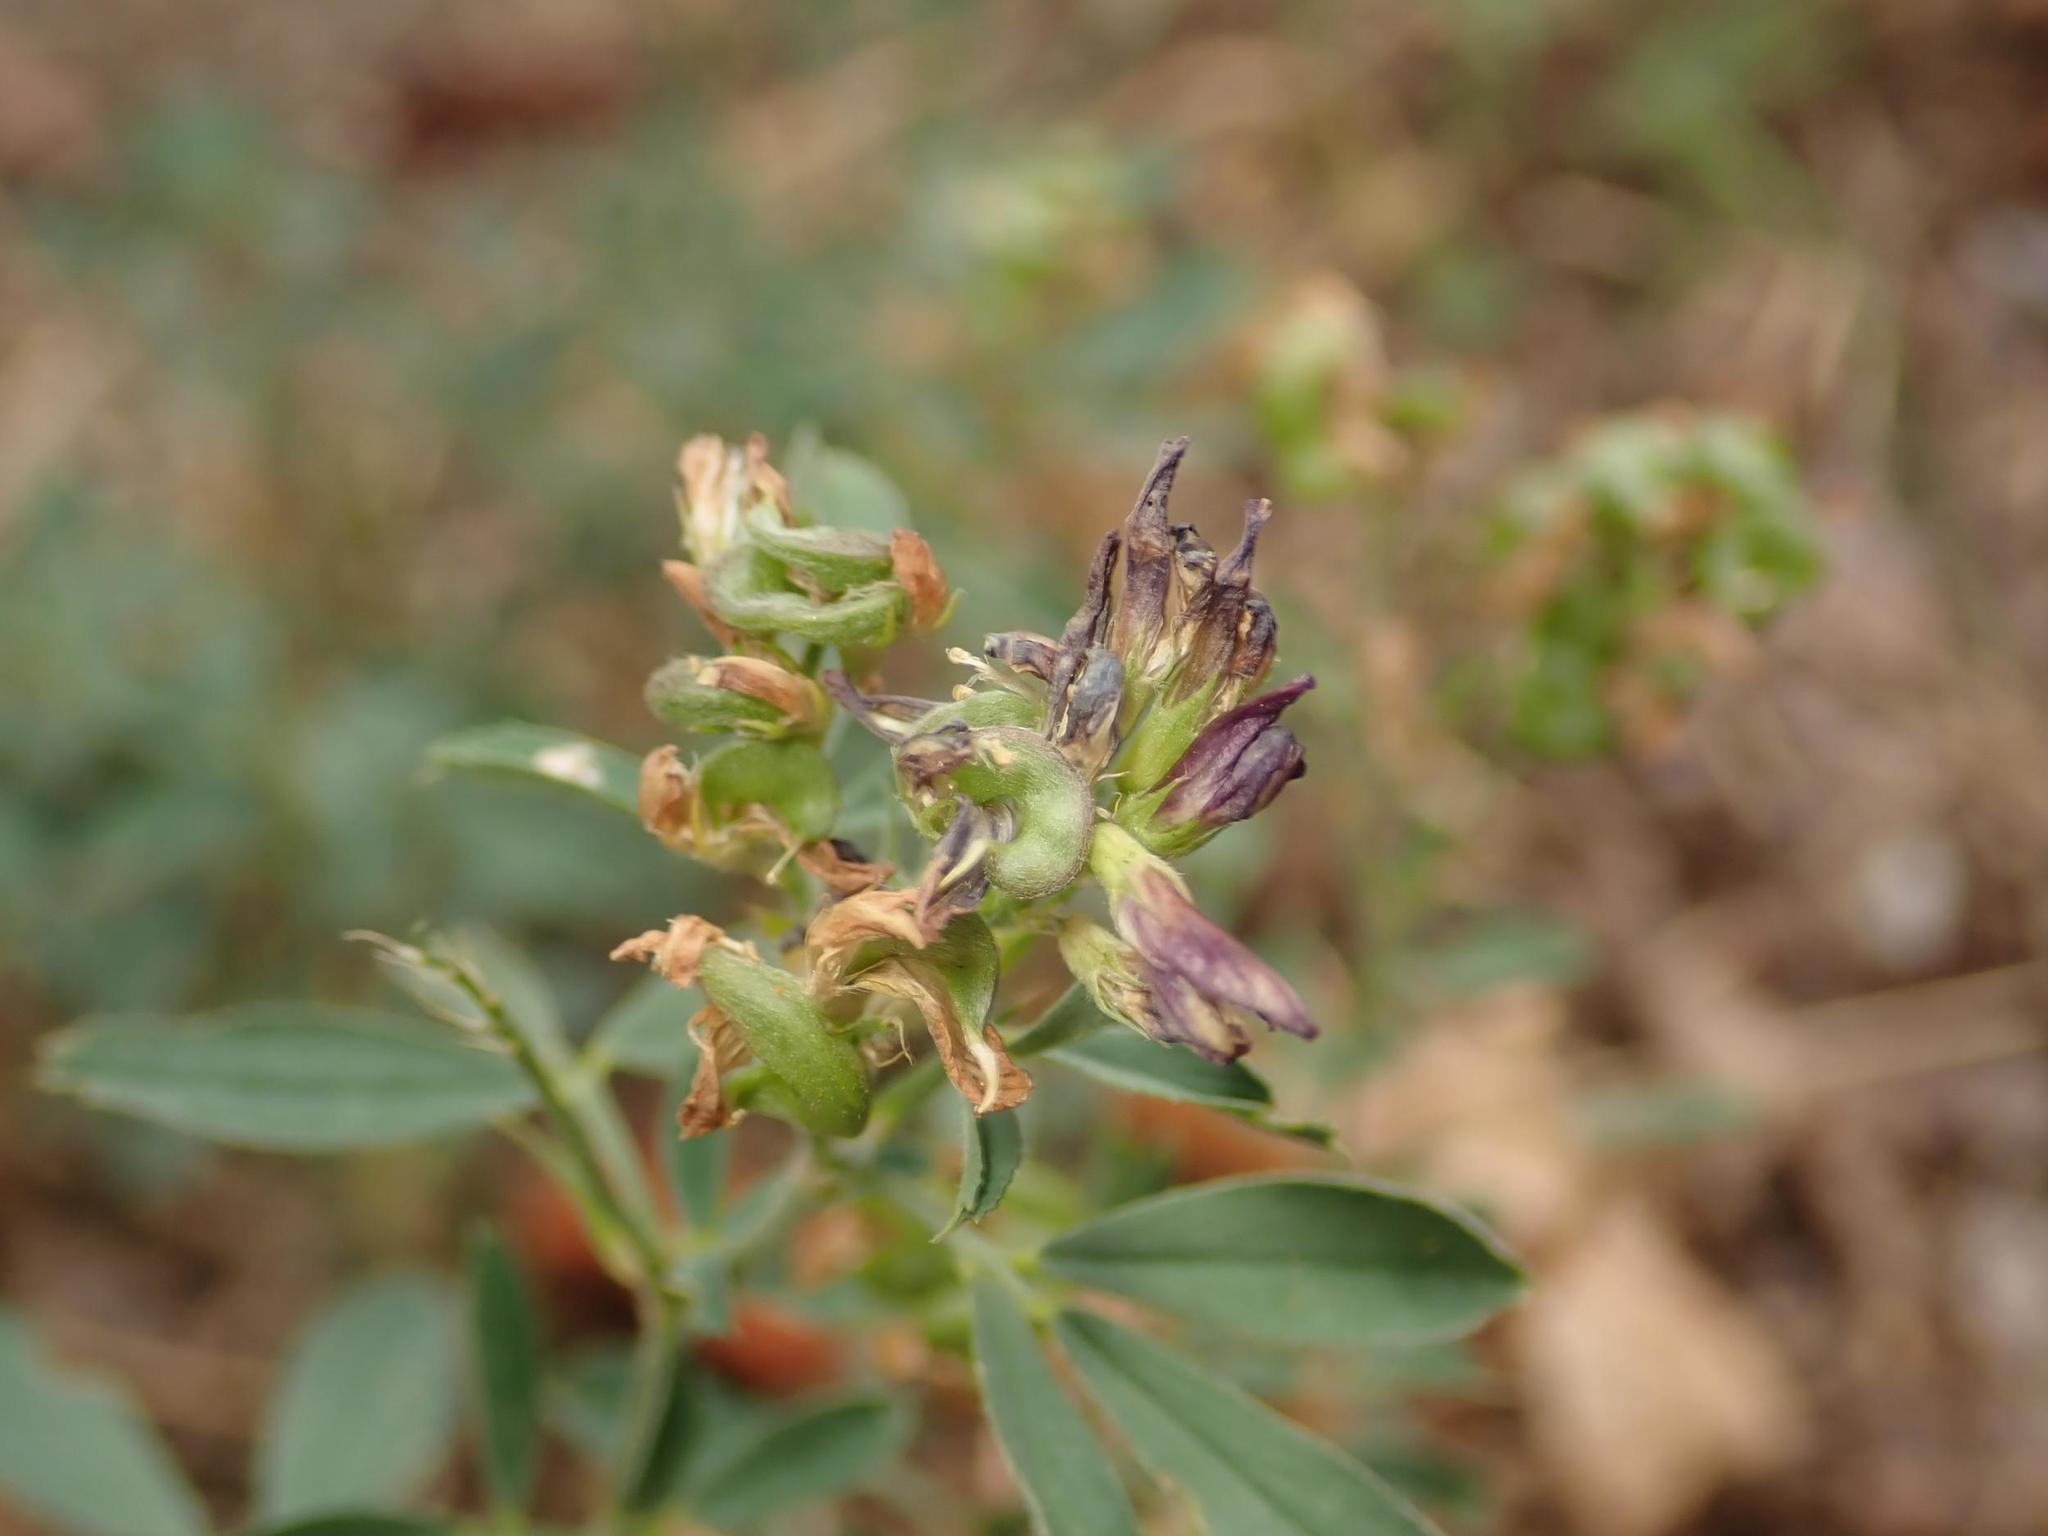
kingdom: Plantae
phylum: Tracheophyta
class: Magnoliopsida
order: Fabales
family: Fabaceae
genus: Medicago
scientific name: Medicago varia
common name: Sand lucerne
